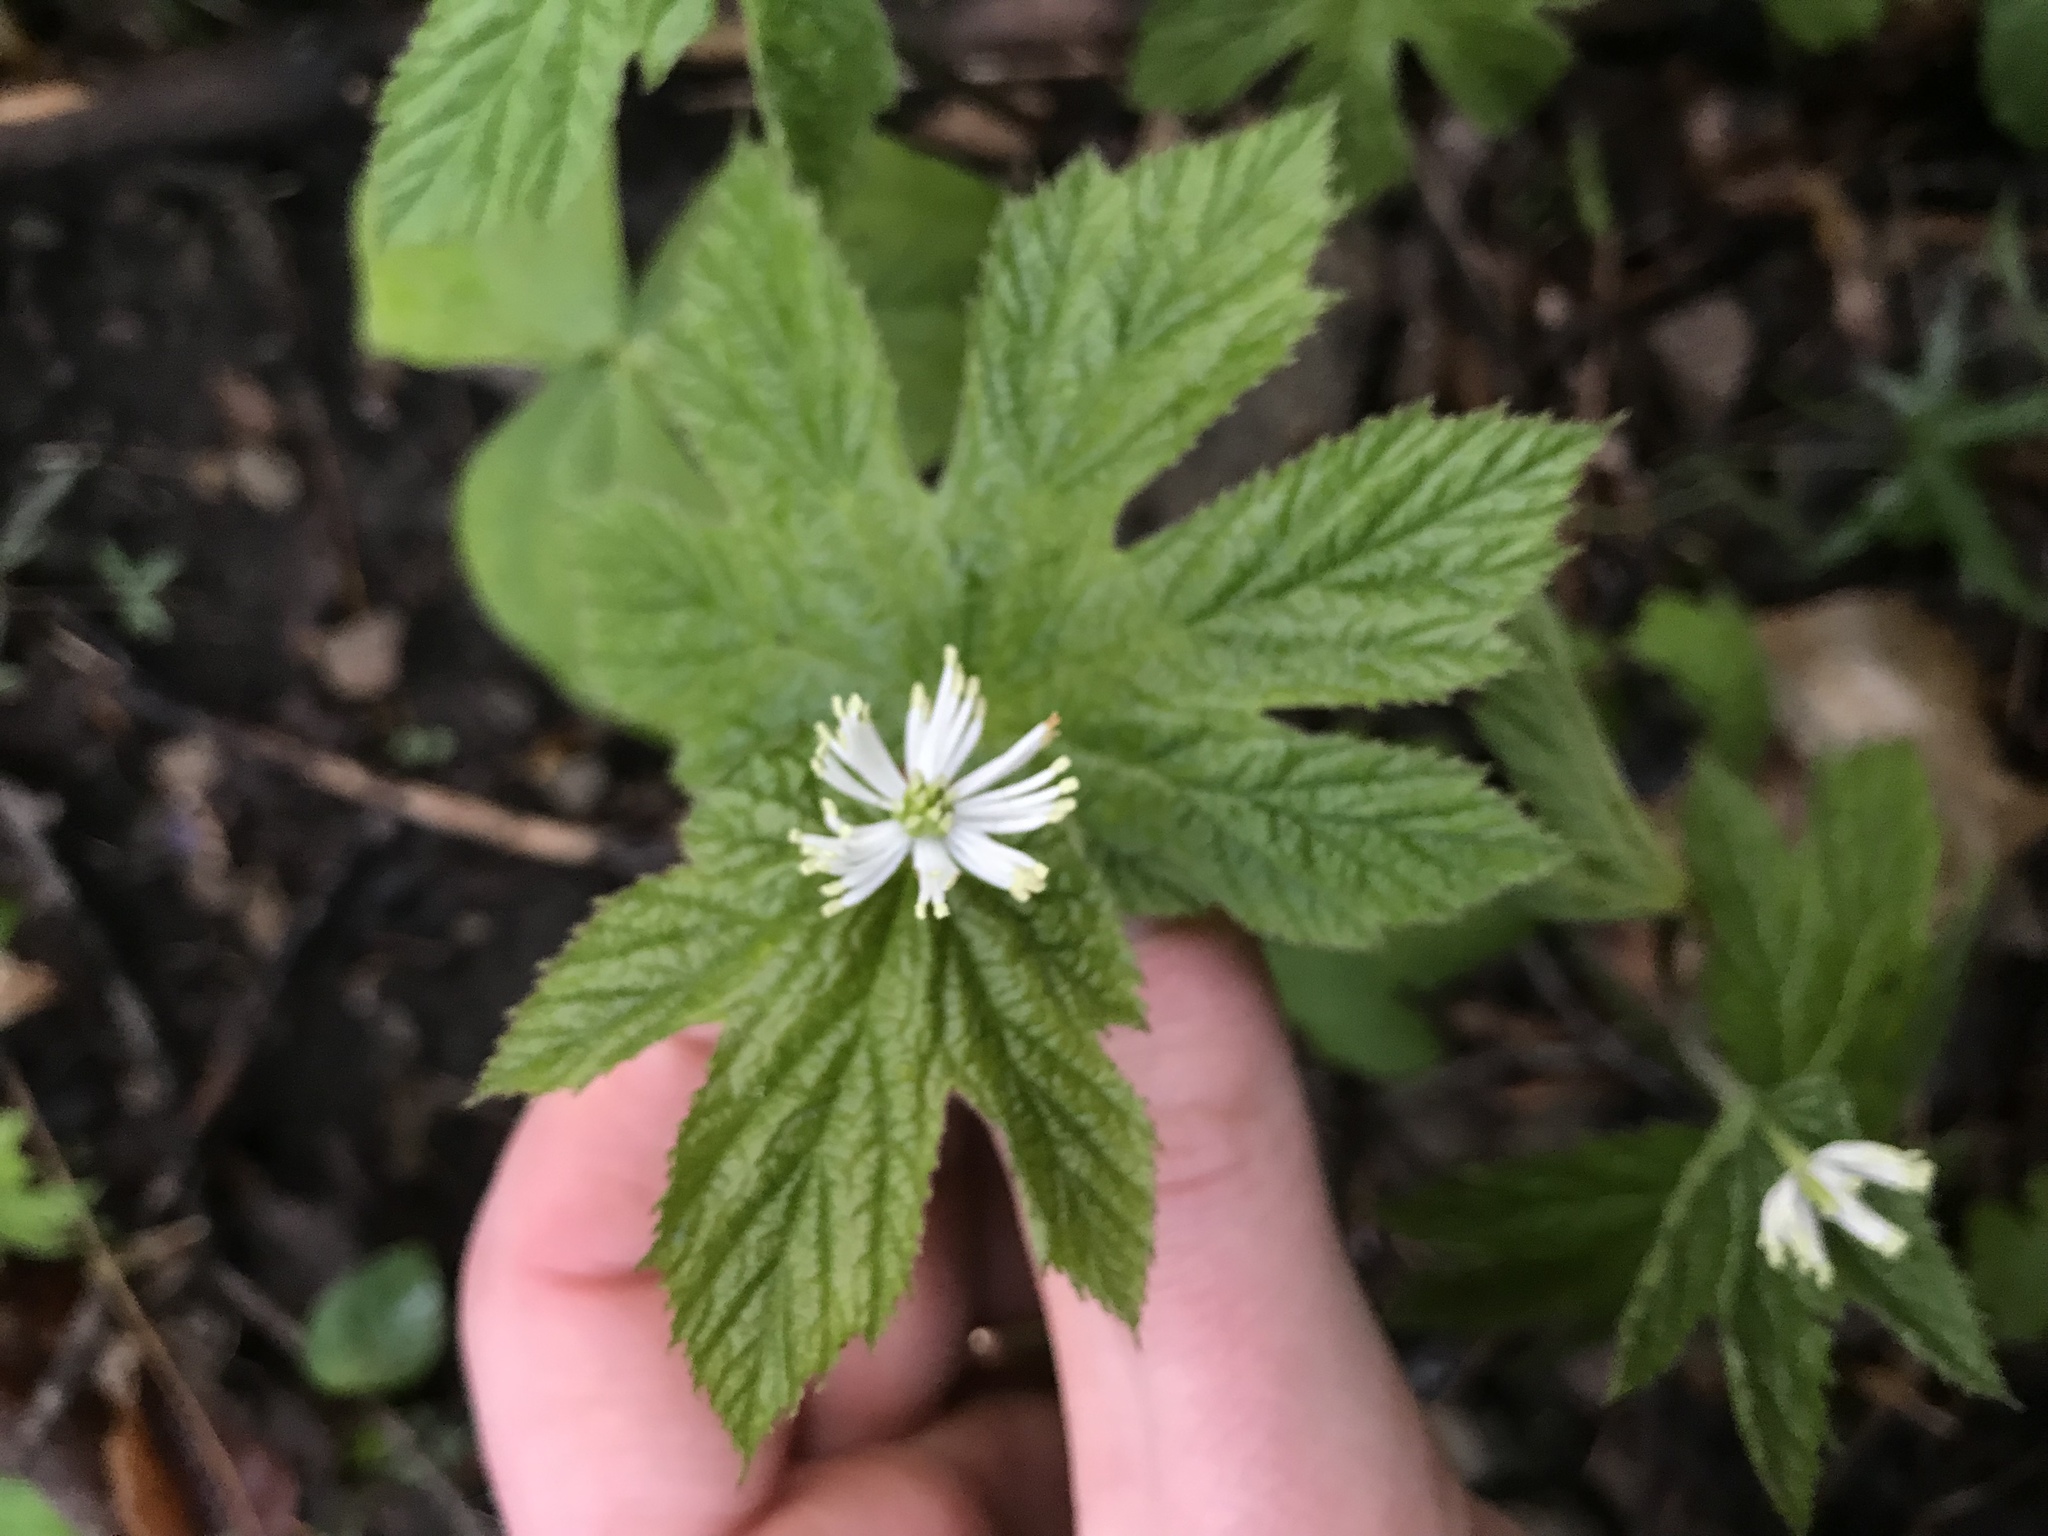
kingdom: Plantae
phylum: Tracheophyta
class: Magnoliopsida
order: Ranunculales
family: Ranunculaceae
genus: Hydrastis
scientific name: Hydrastis canadensis
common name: Goldenseal
